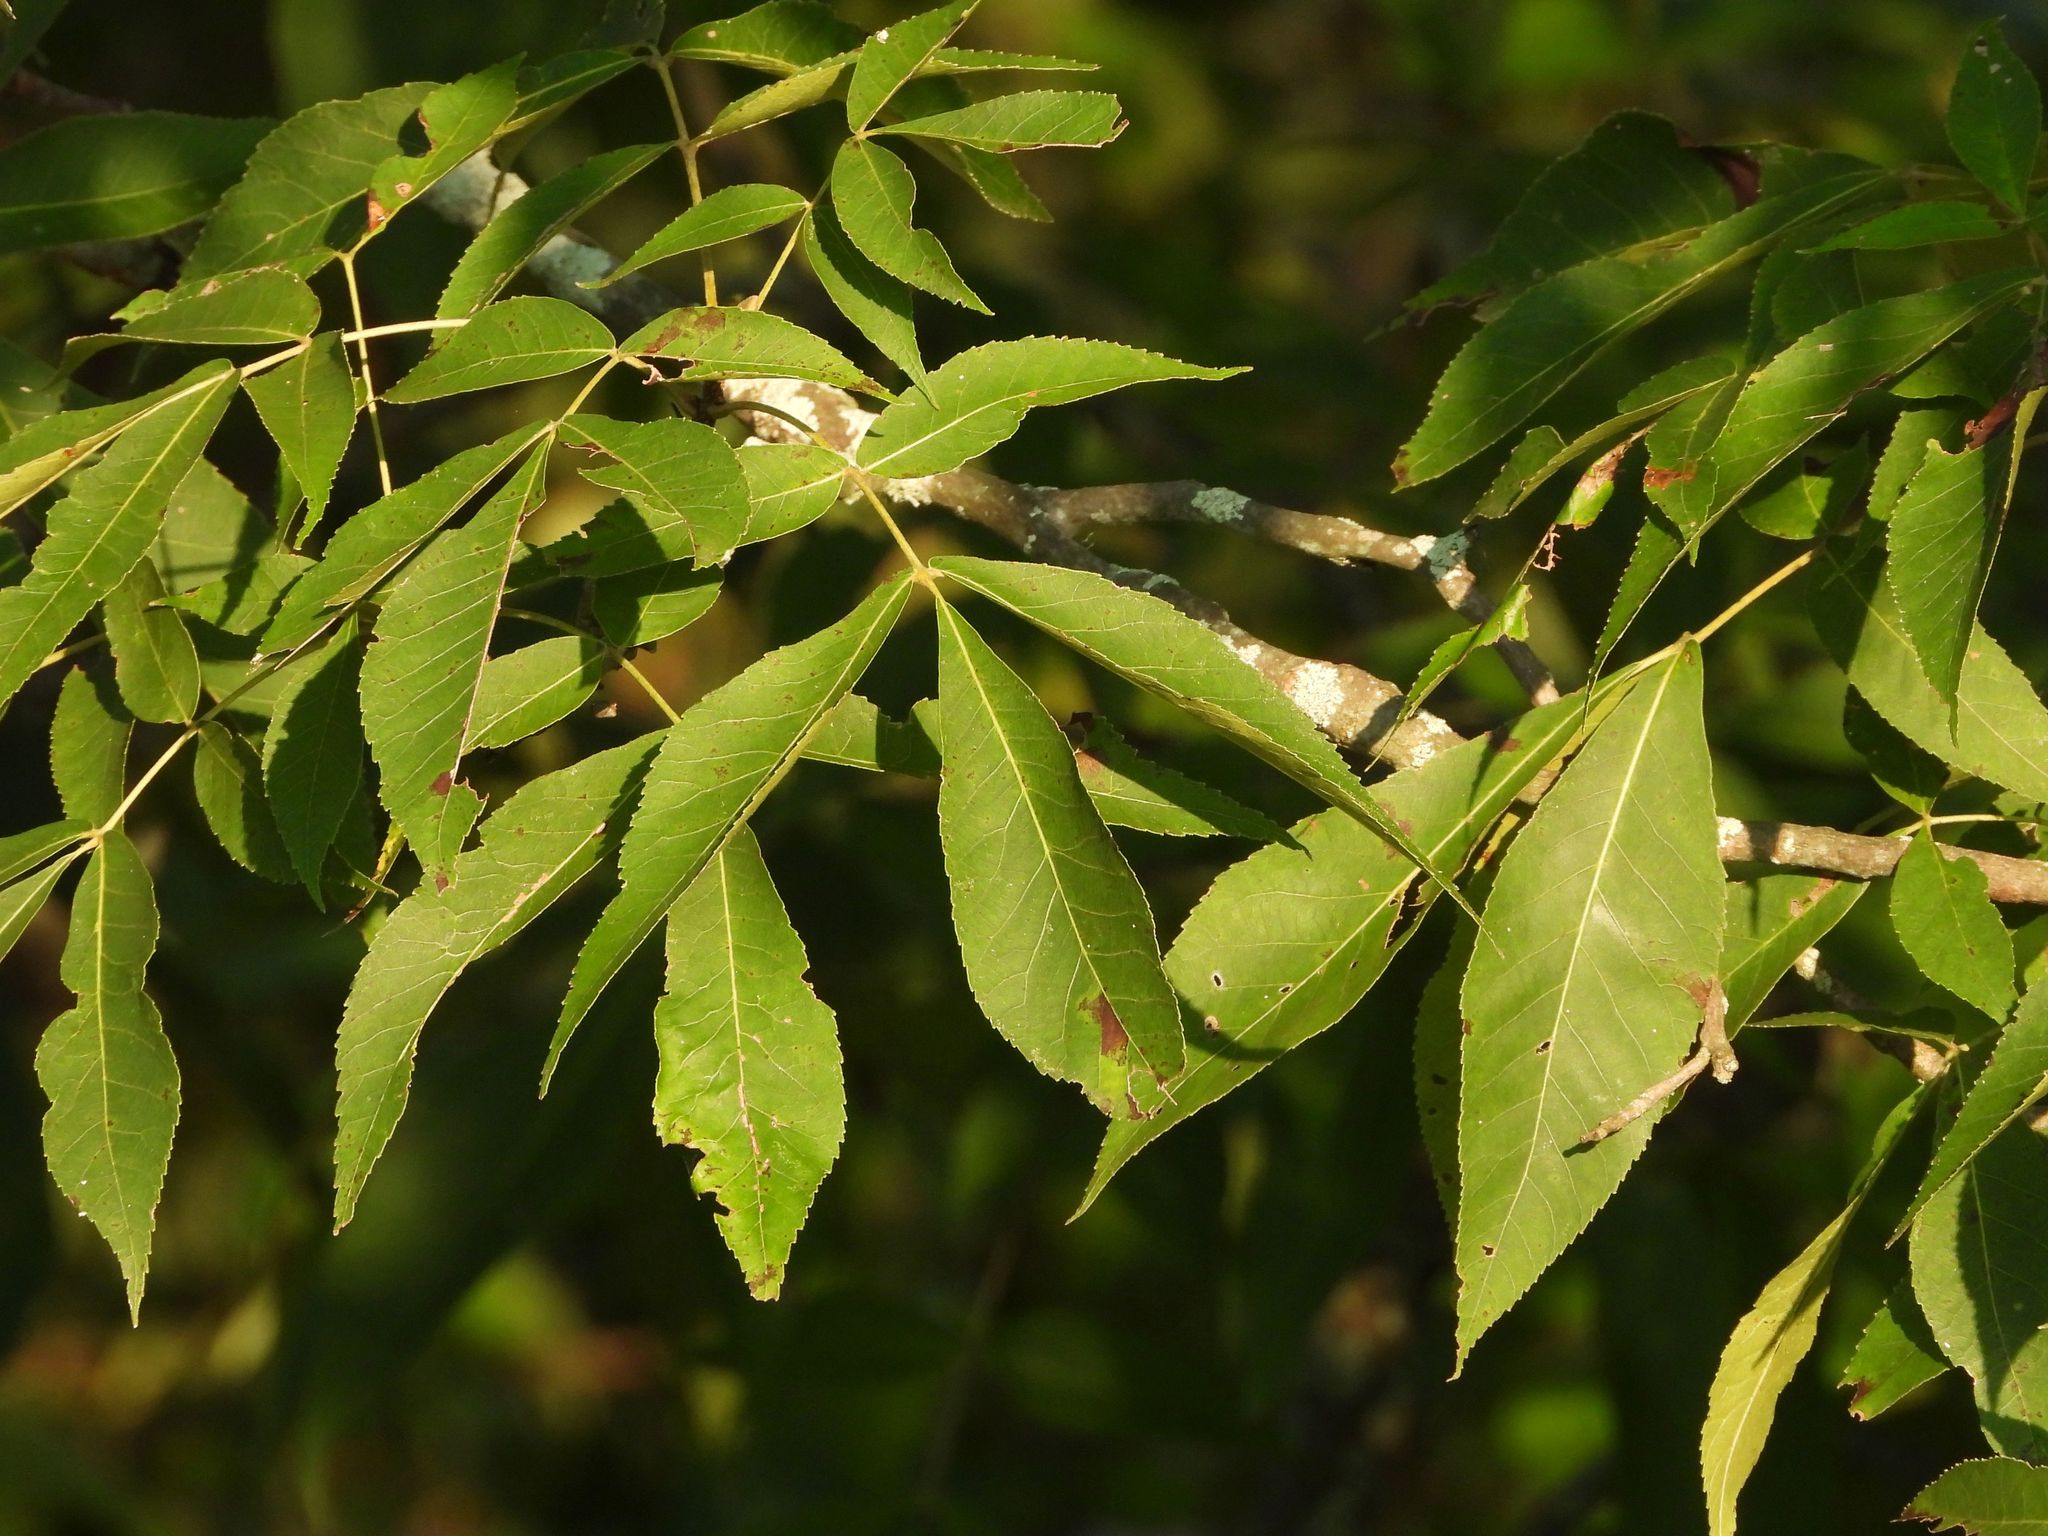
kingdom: Plantae
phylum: Tracheophyta
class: Magnoliopsida
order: Fagales
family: Juglandaceae
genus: Carya
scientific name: Carya ovata
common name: Shagbark hickory
